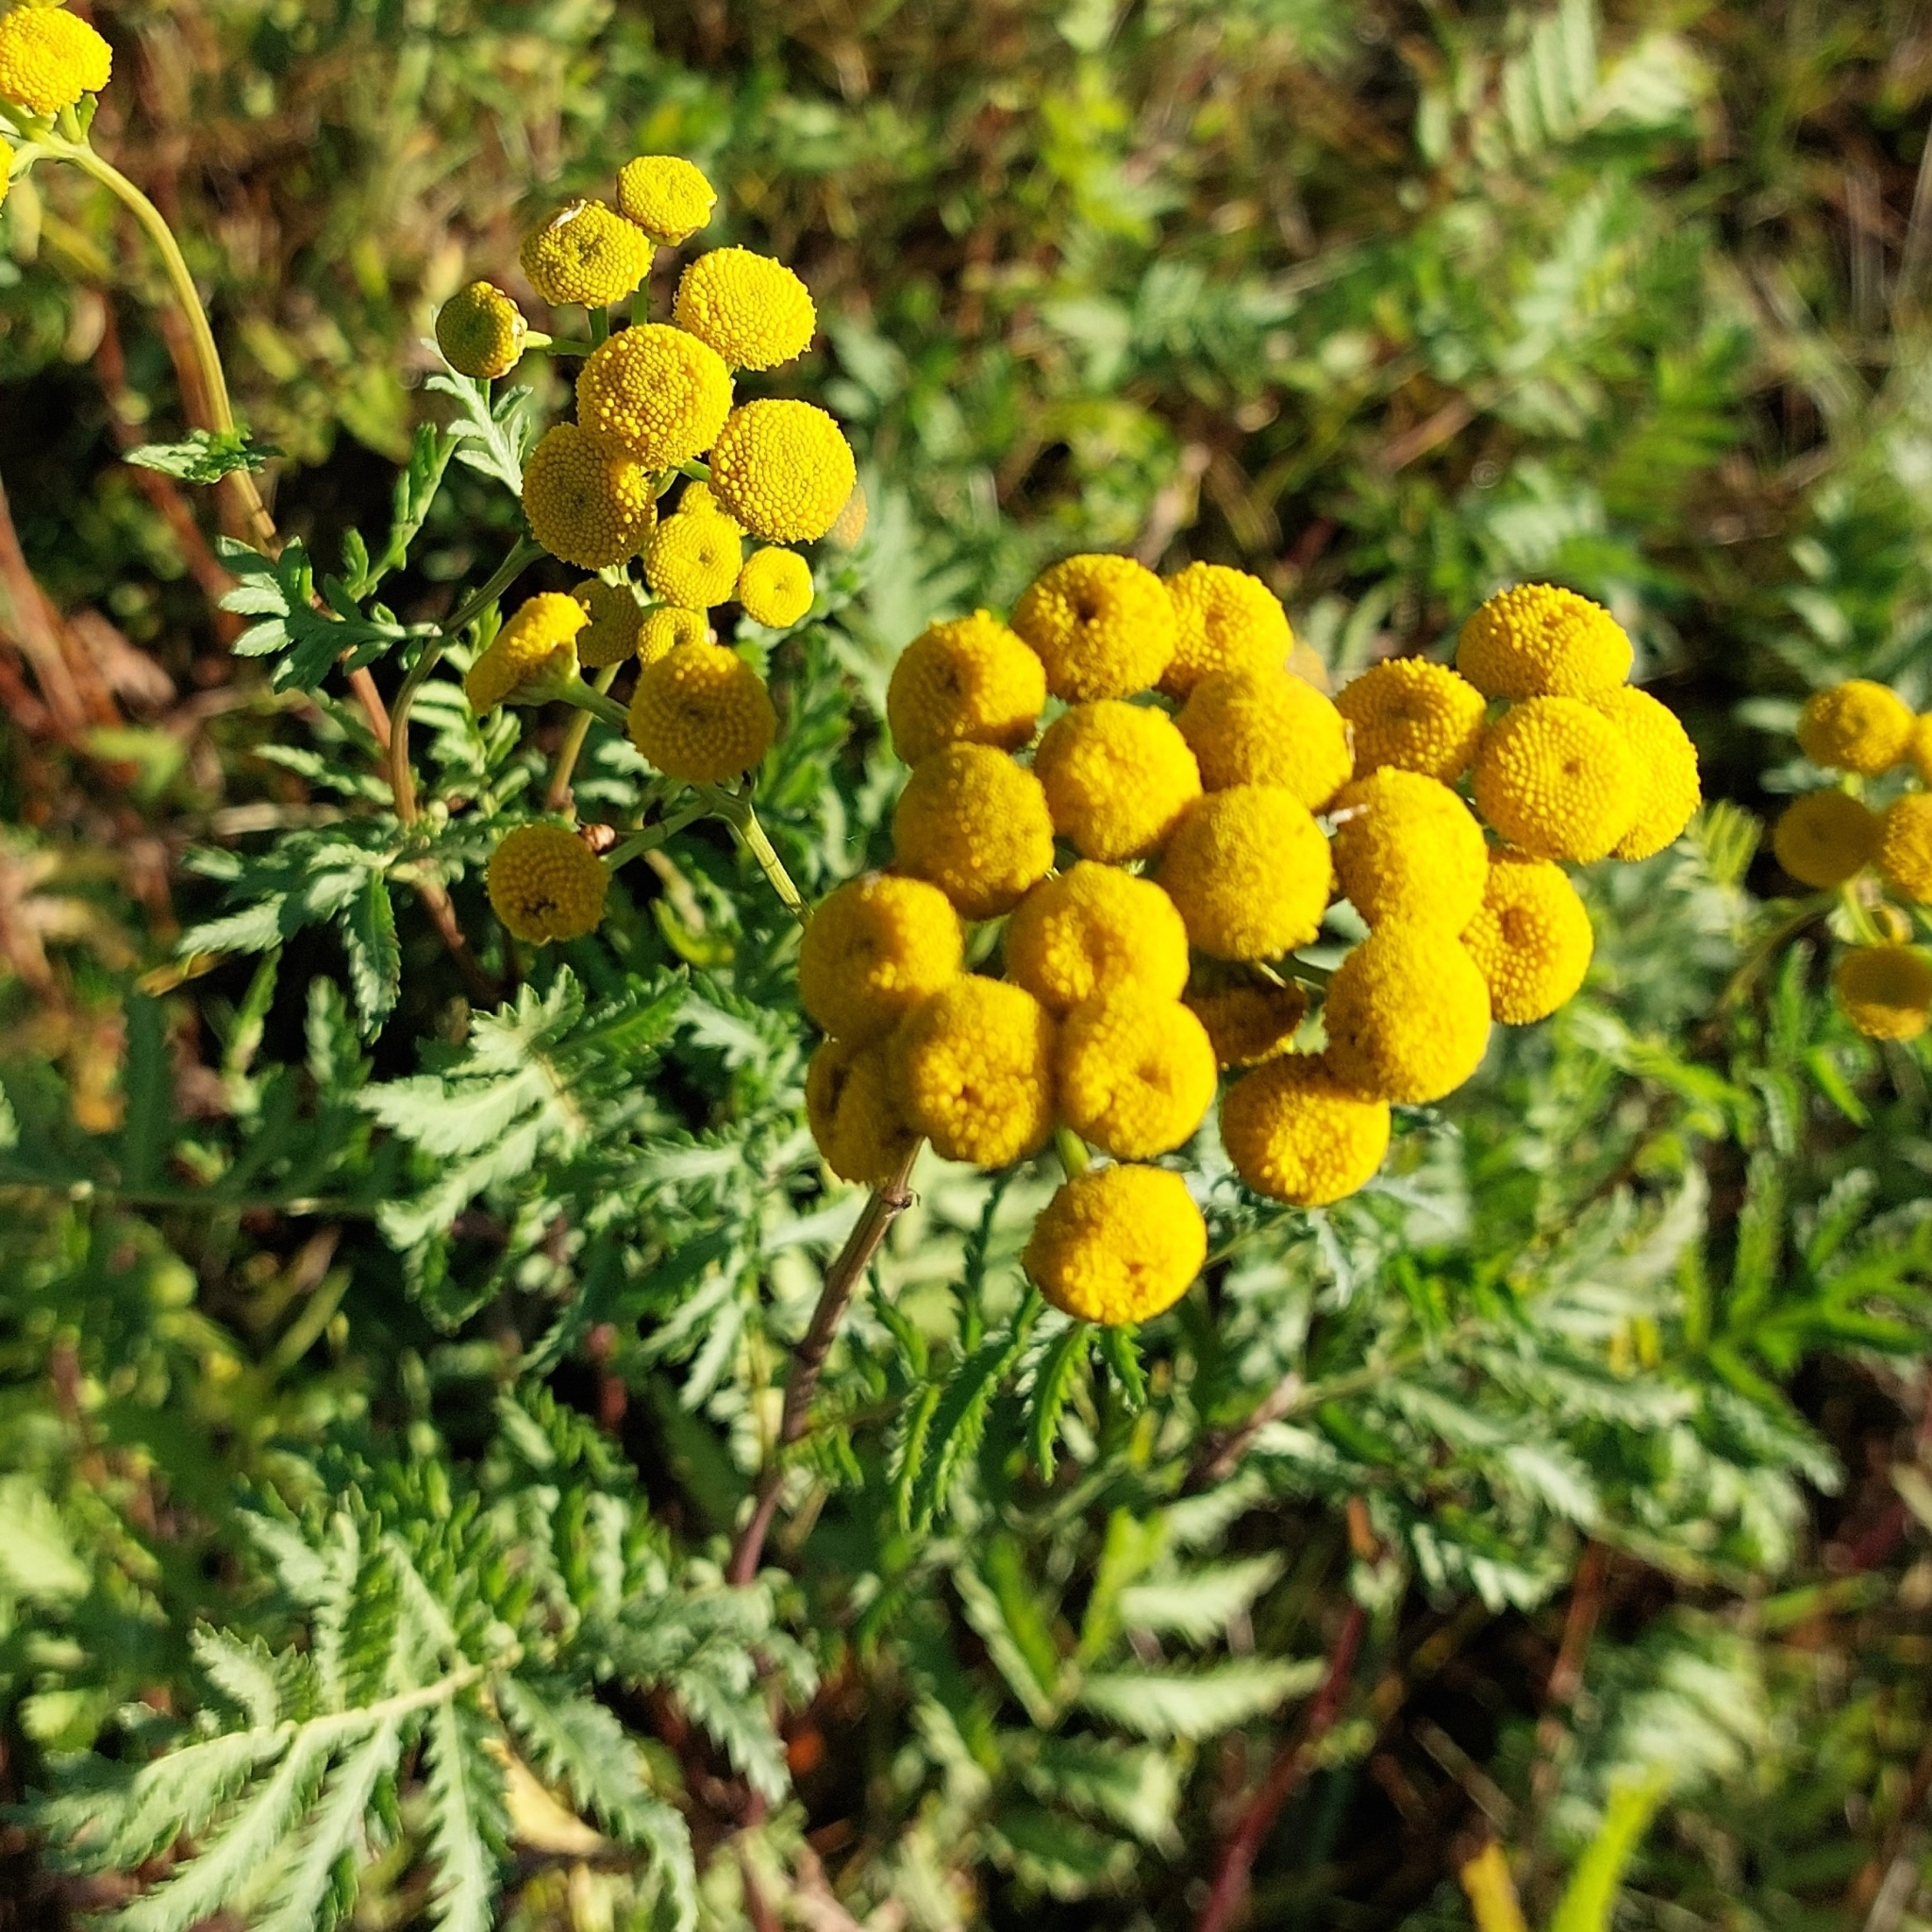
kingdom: Plantae
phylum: Tracheophyta
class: Magnoliopsida
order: Asterales
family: Asteraceae
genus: Tanacetum
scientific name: Tanacetum vulgare
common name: Common tansy
